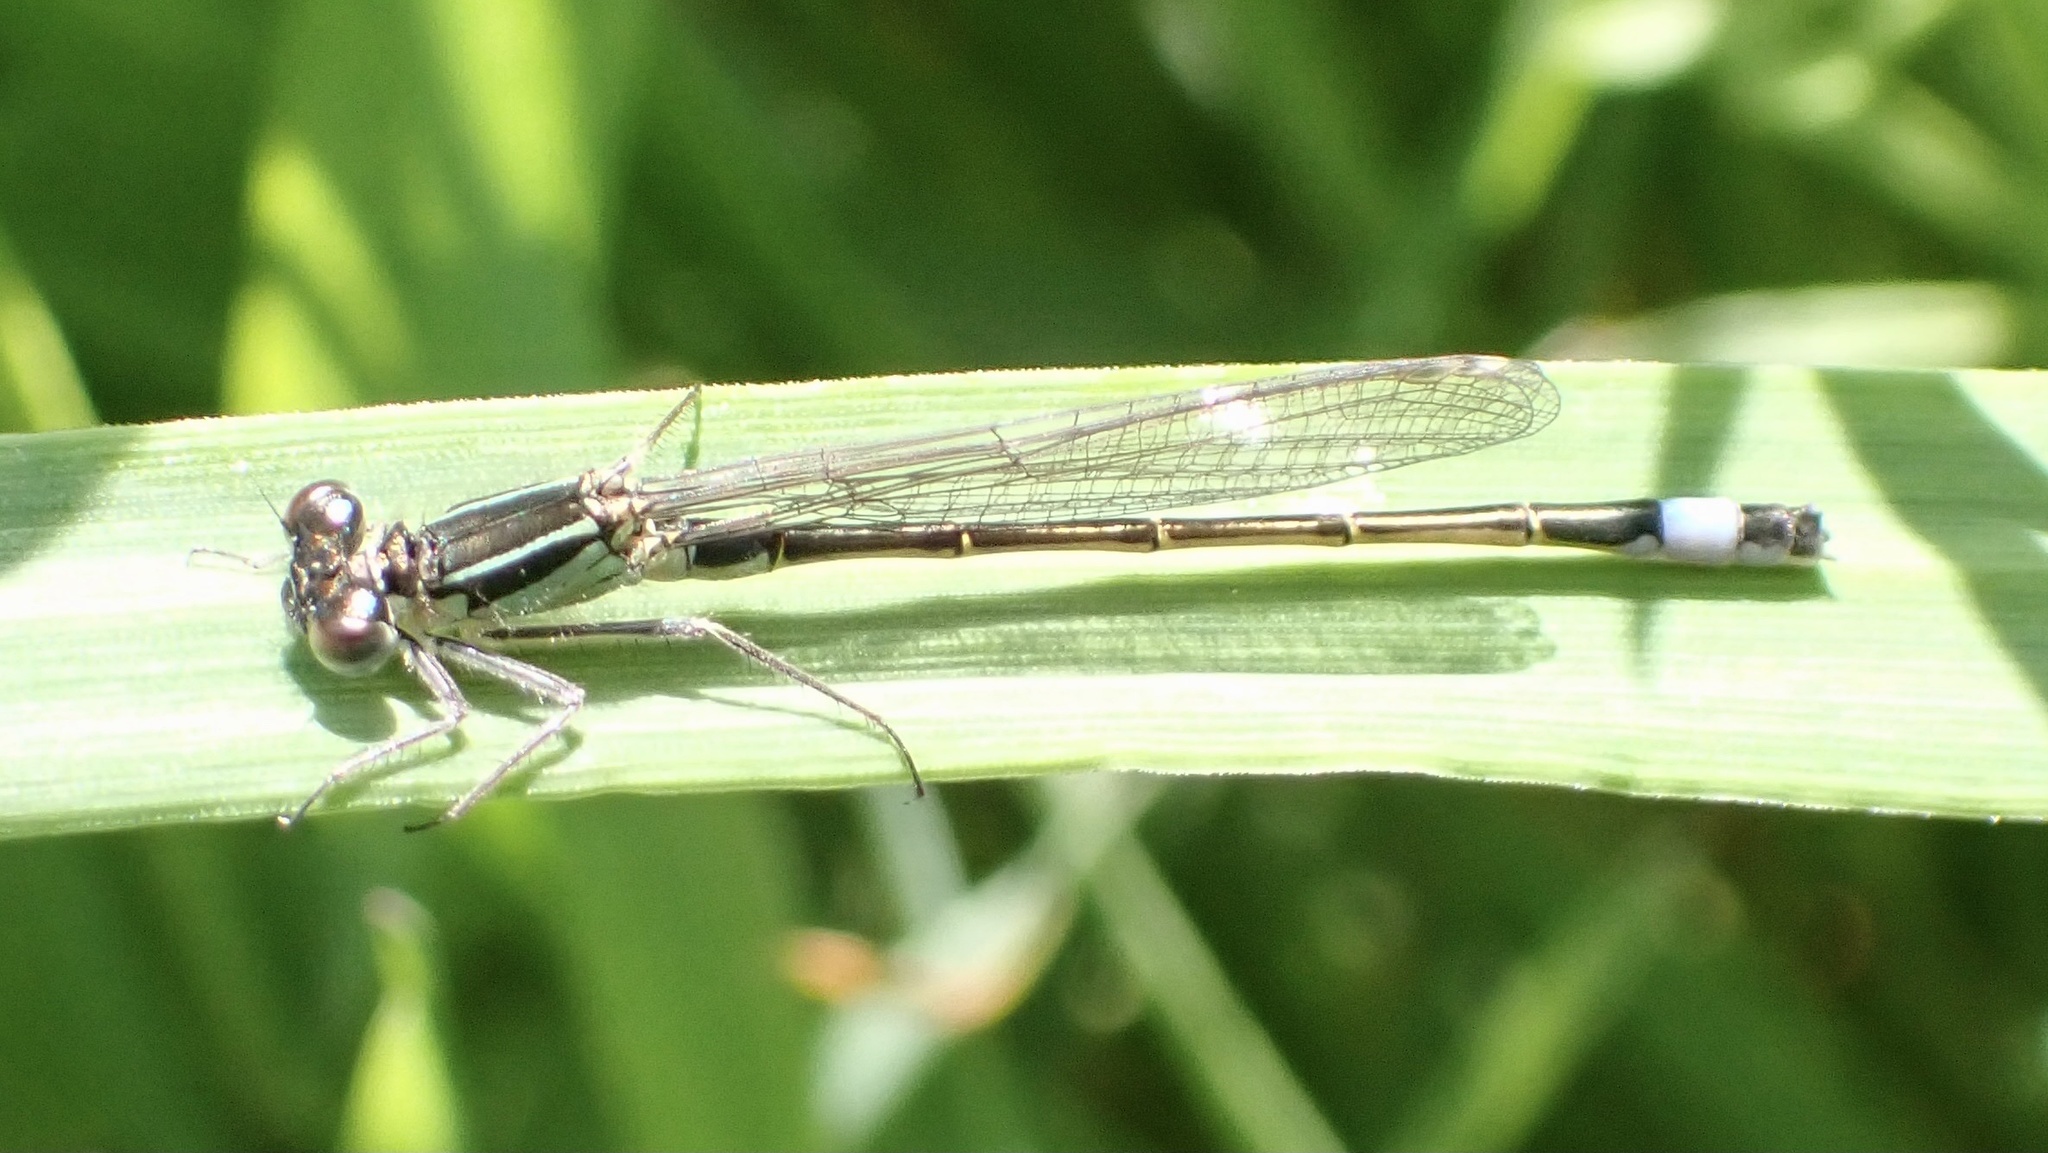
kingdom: Animalia
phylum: Arthropoda
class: Insecta
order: Odonata
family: Coenagrionidae
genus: Ischnura
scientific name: Ischnura elegans
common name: Blue-tailed damselfly
